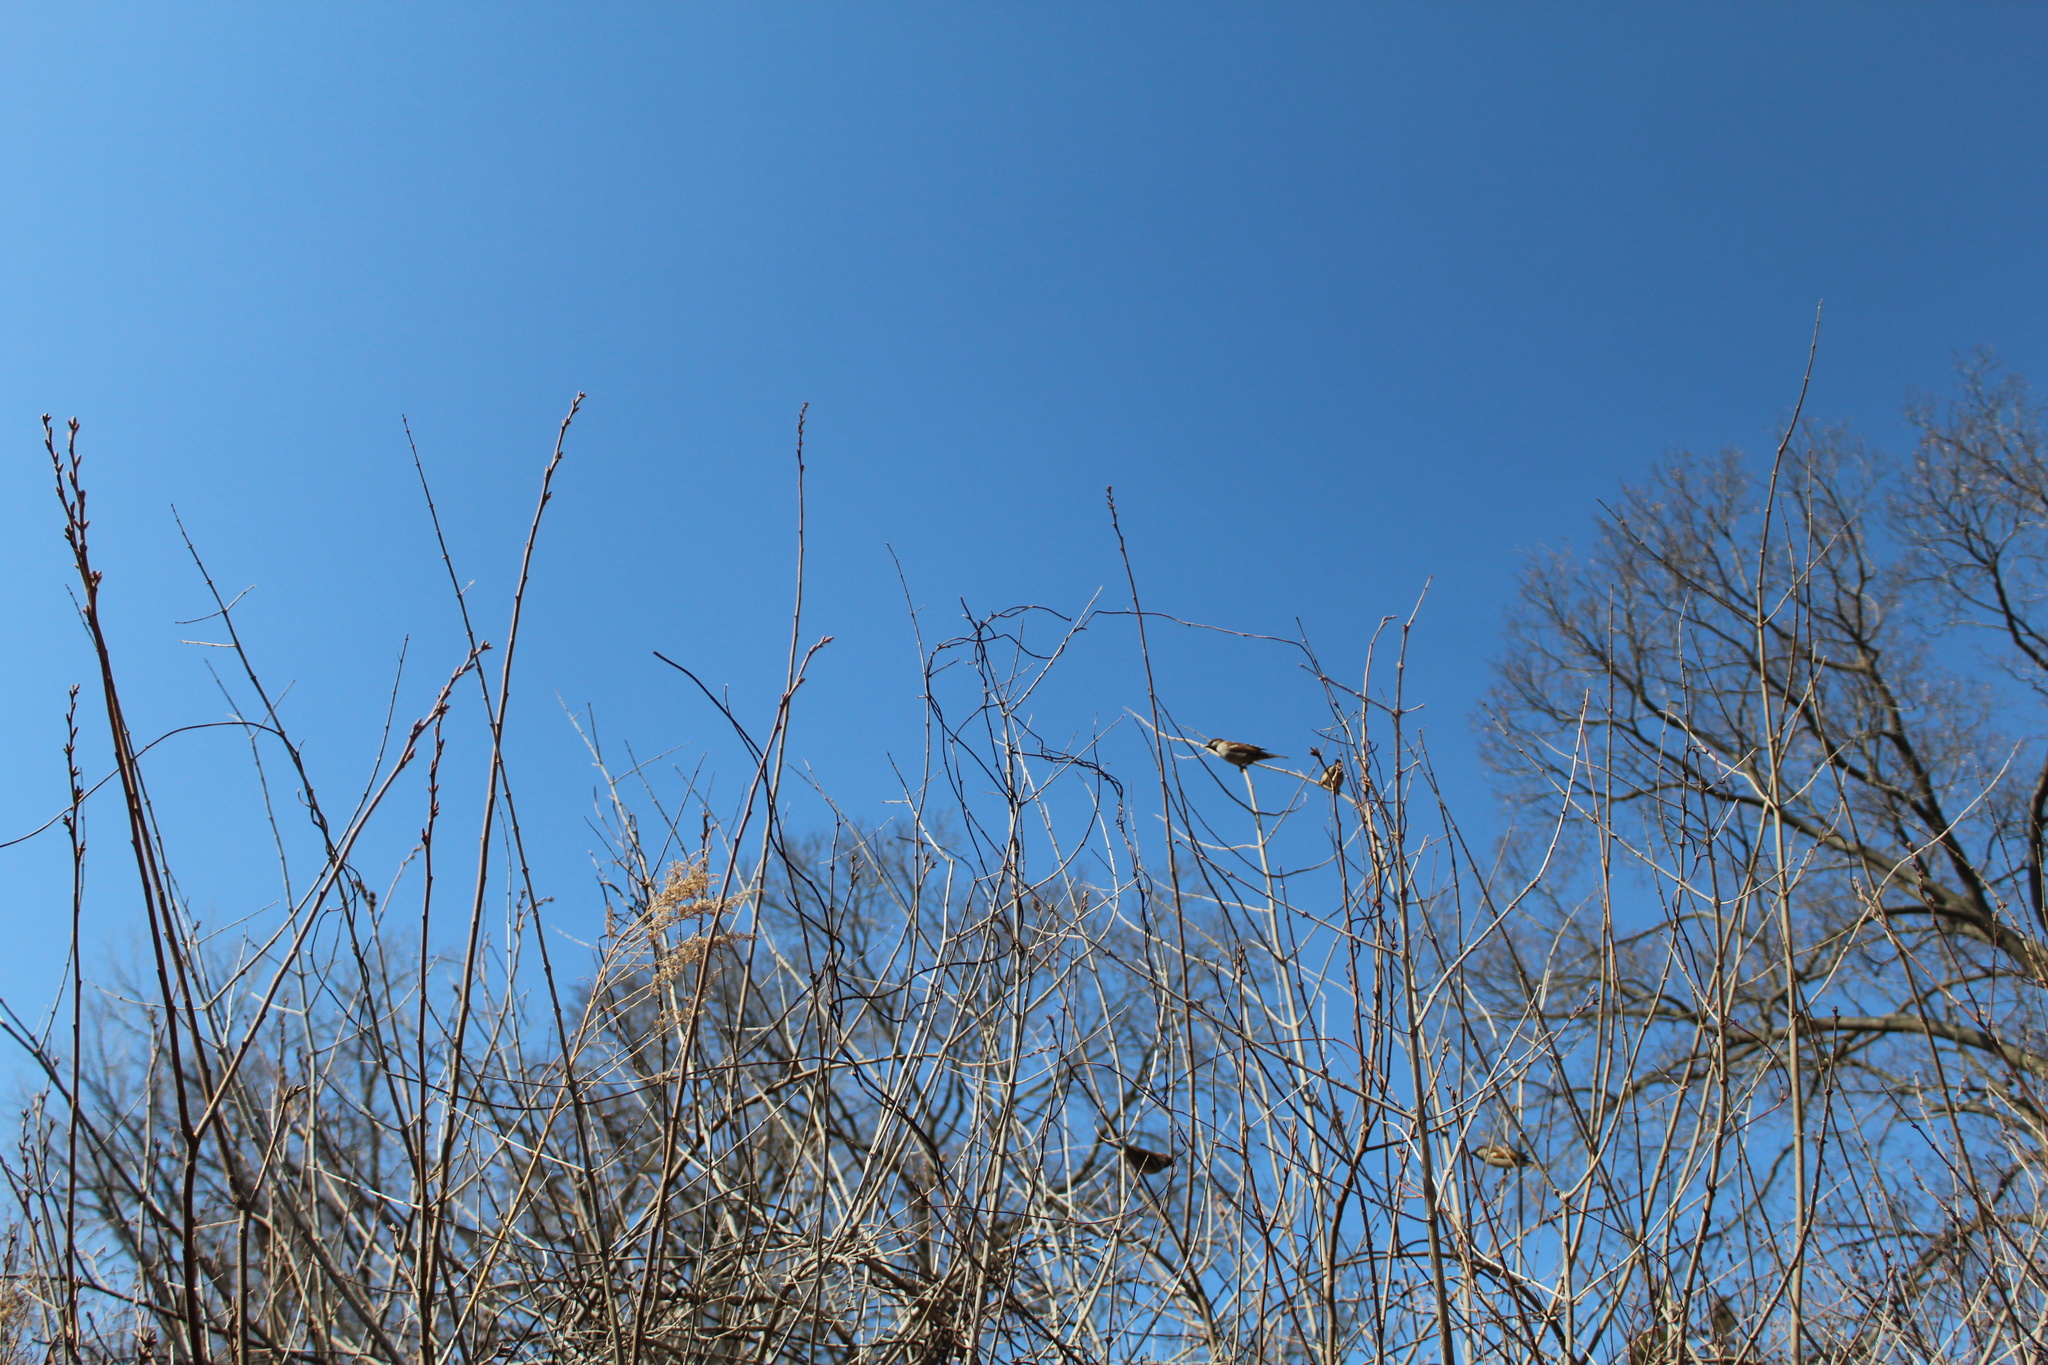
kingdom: Animalia
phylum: Chordata
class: Aves
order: Passeriformes
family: Passeridae
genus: Passer
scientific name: Passer domesticus
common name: House sparrow
